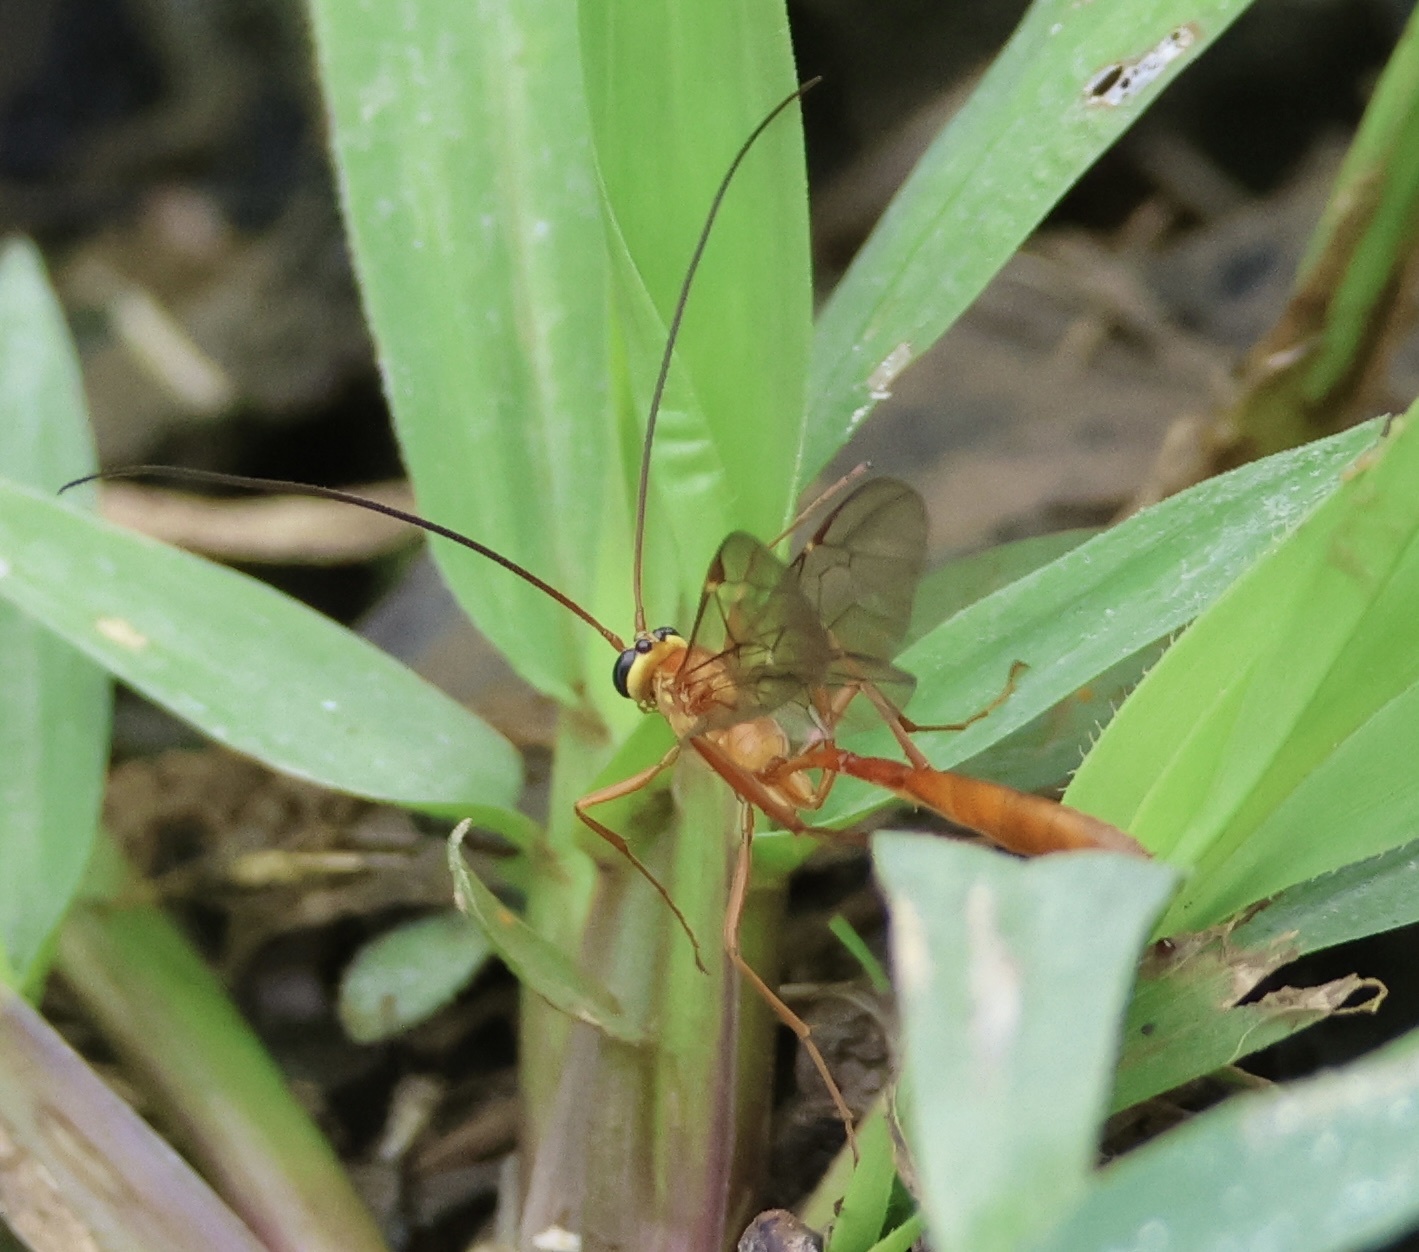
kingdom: Animalia
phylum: Arthropoda
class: Insecta
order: Hymenoptera
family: Ichneumonidae
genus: Ophion
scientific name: Ophion
